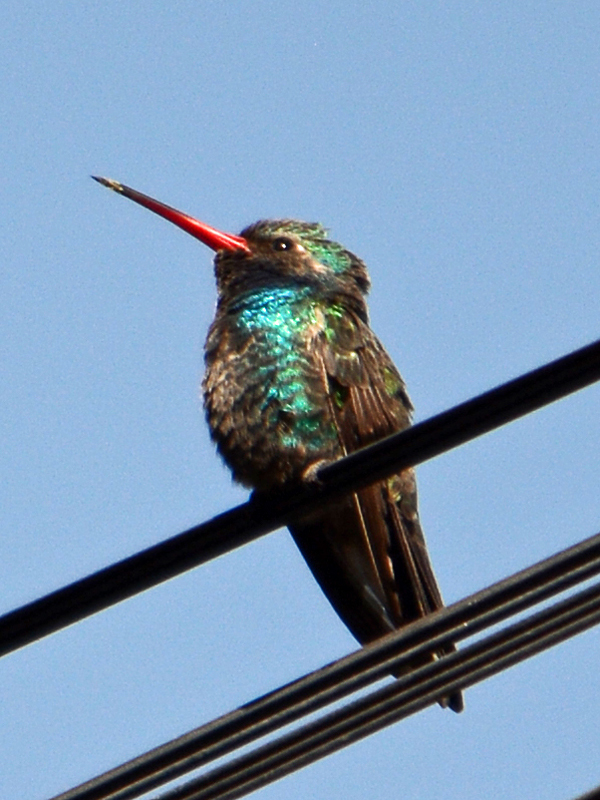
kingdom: Animalia
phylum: Chordata
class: Aves
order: Apodiformes
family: Trochilidae
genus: Cynanthus
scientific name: Cynanthus latirostris
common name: Broad-billed hummingbird
